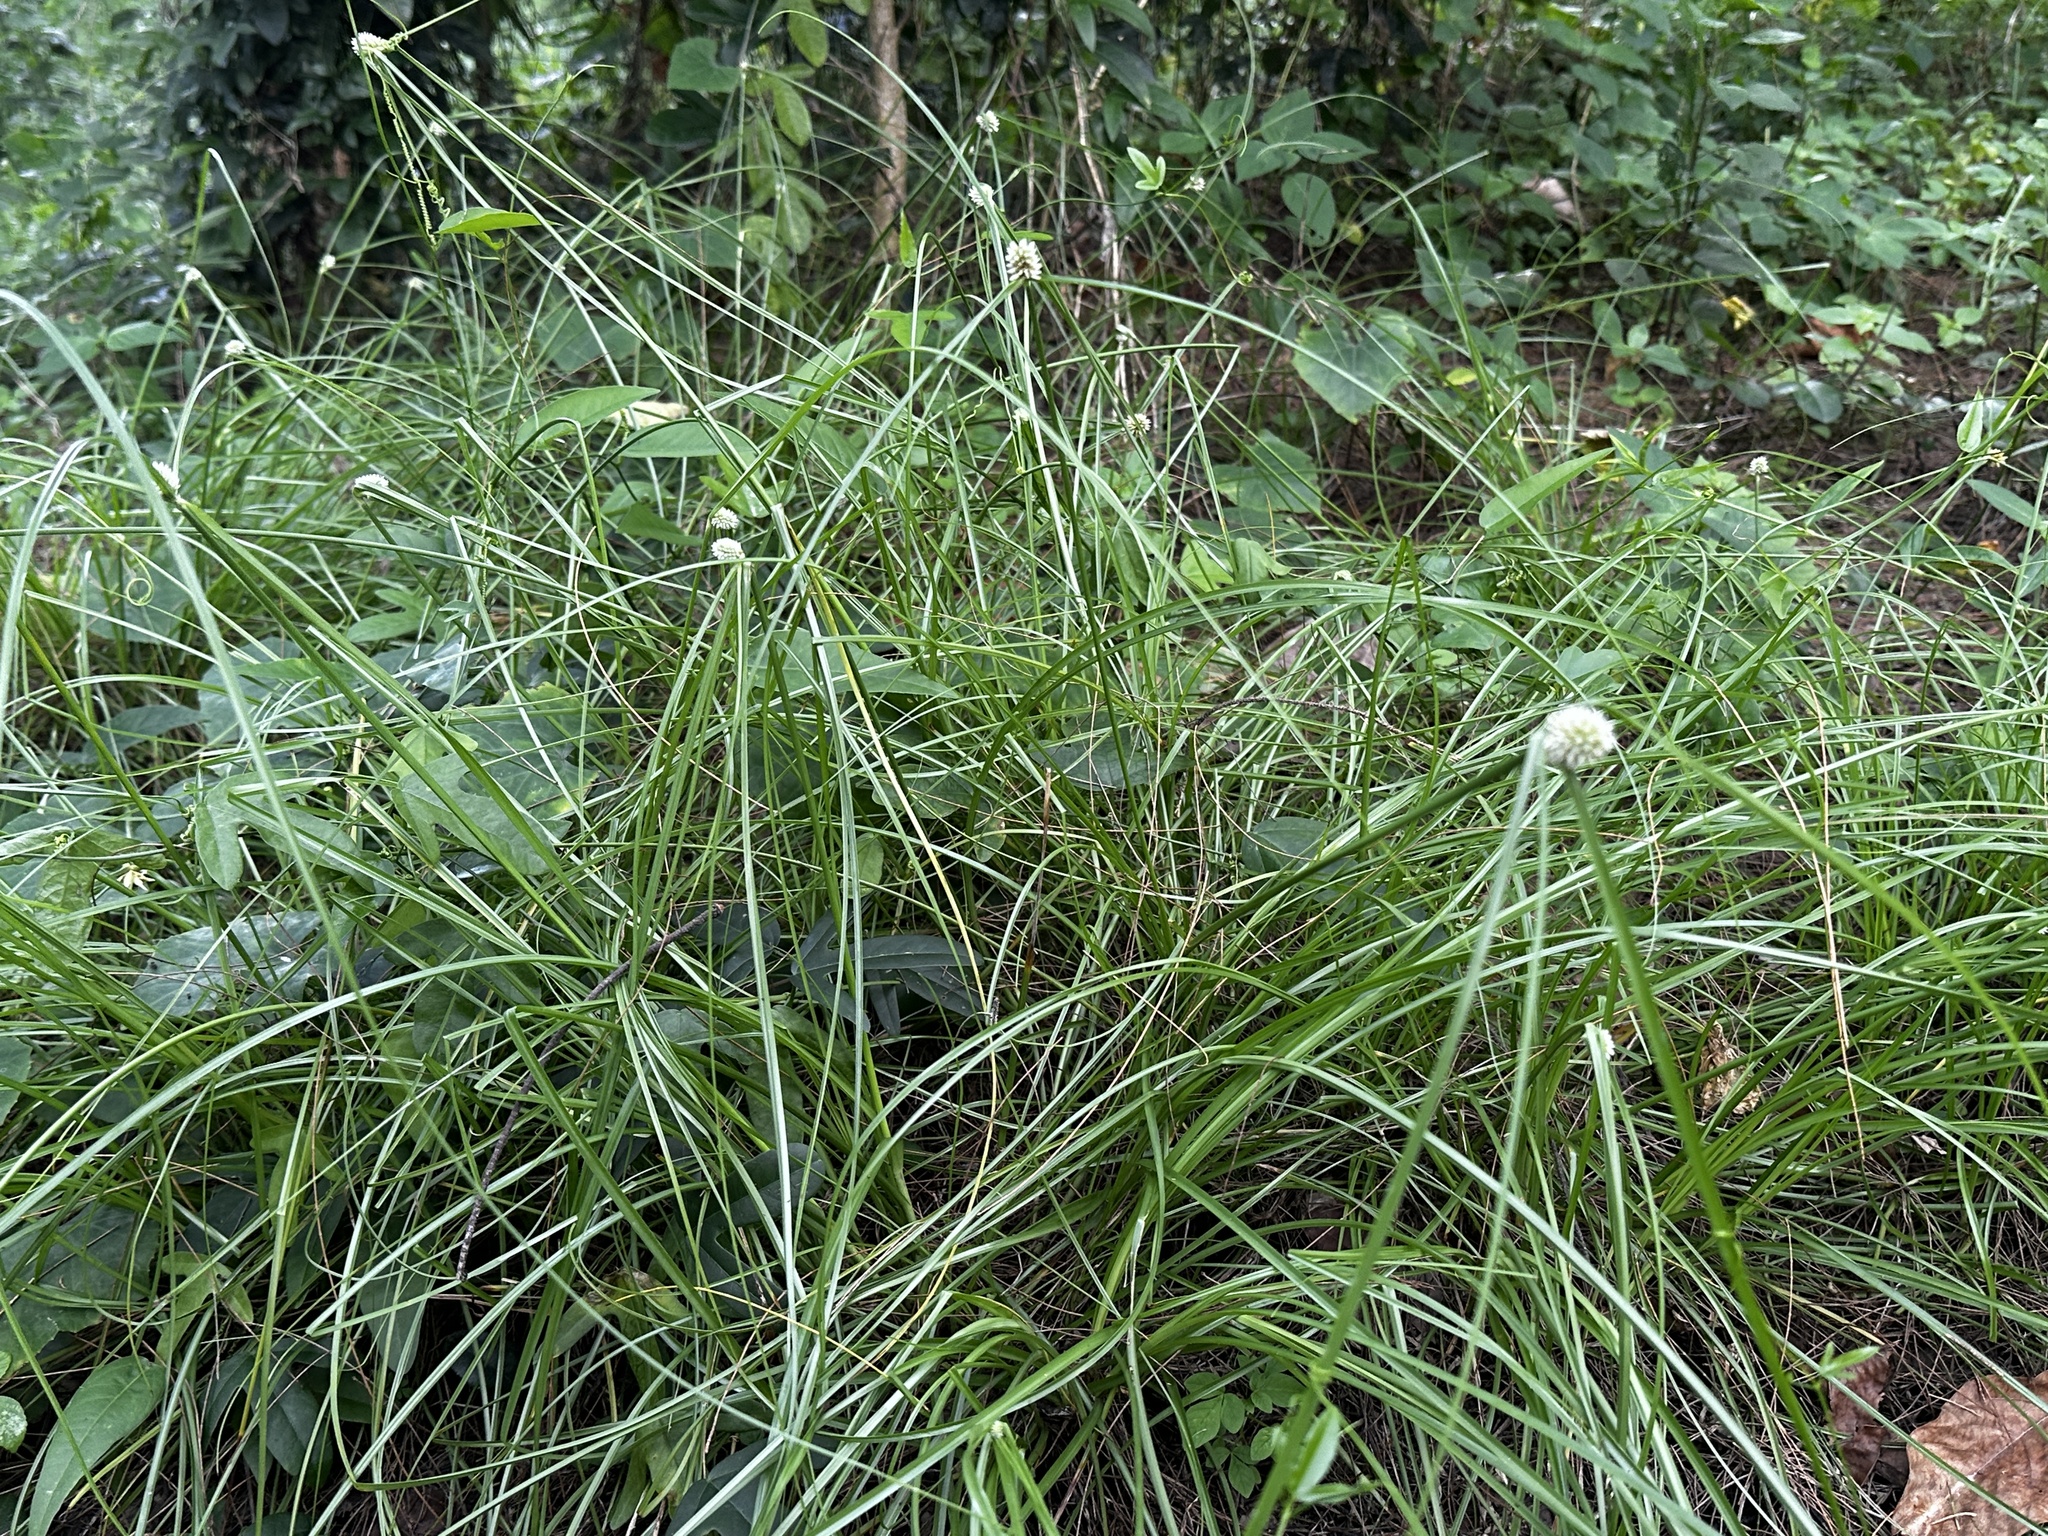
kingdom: Plantae
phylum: Tracheophyta
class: Liliopsida
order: Poales
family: Cyperaceae
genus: Cyperus
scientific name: Cyperus dubius
